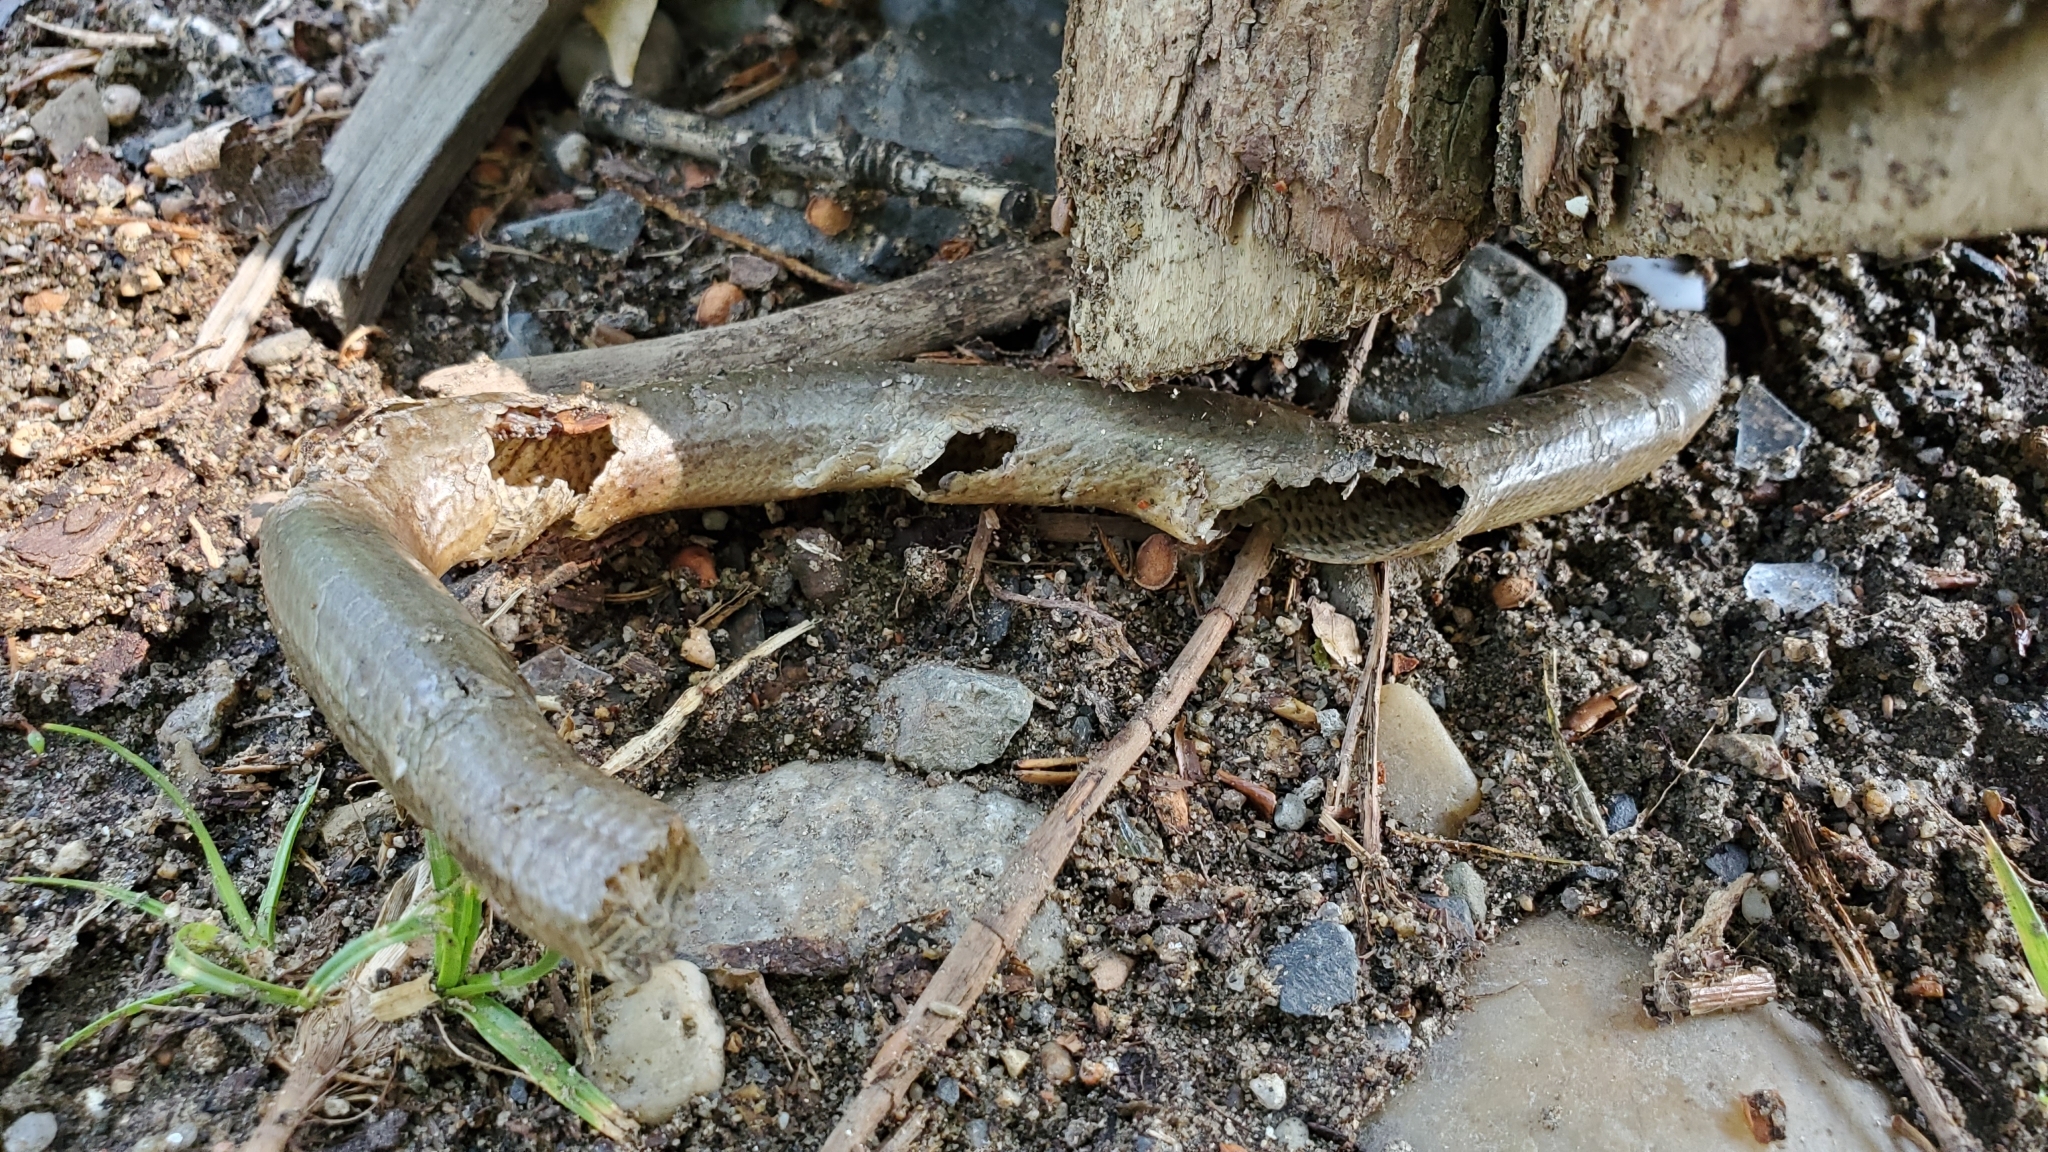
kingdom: Animalia
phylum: Chordata
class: Squamata
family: Anguidae
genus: Anguis
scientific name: Anguis fragilis
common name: Slow worm
